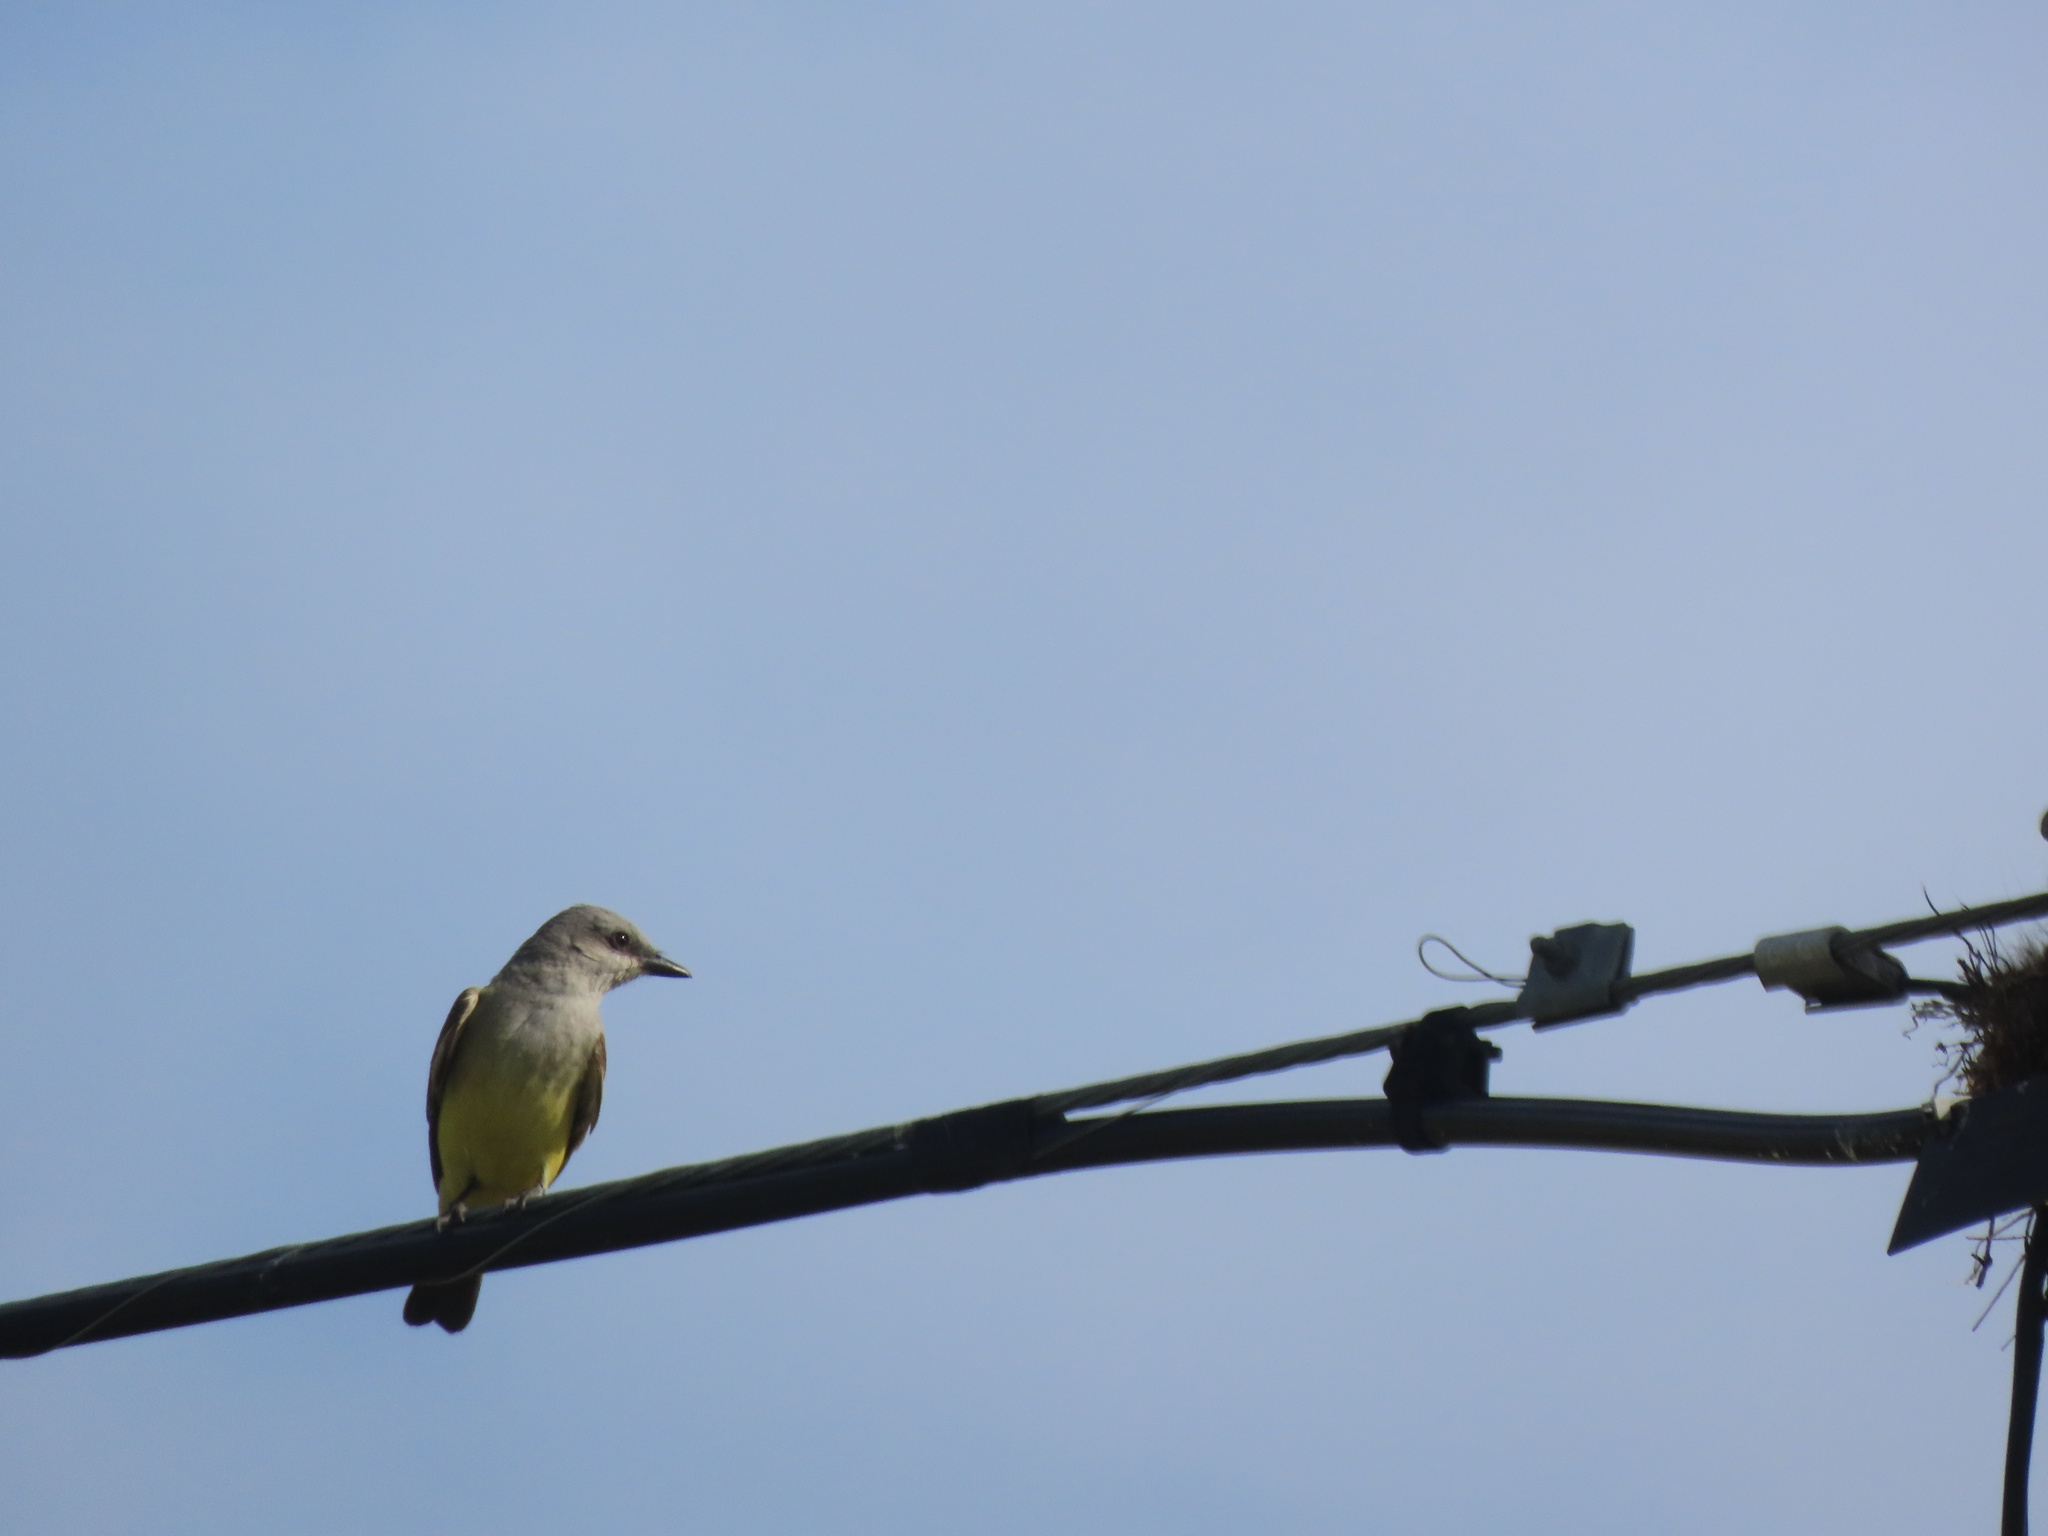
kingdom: Animalia
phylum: Chordata
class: Aves
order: Passeriformes
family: Tyrannidae
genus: Tyrannus
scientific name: Tyrannus verticalis
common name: Western kingbird
